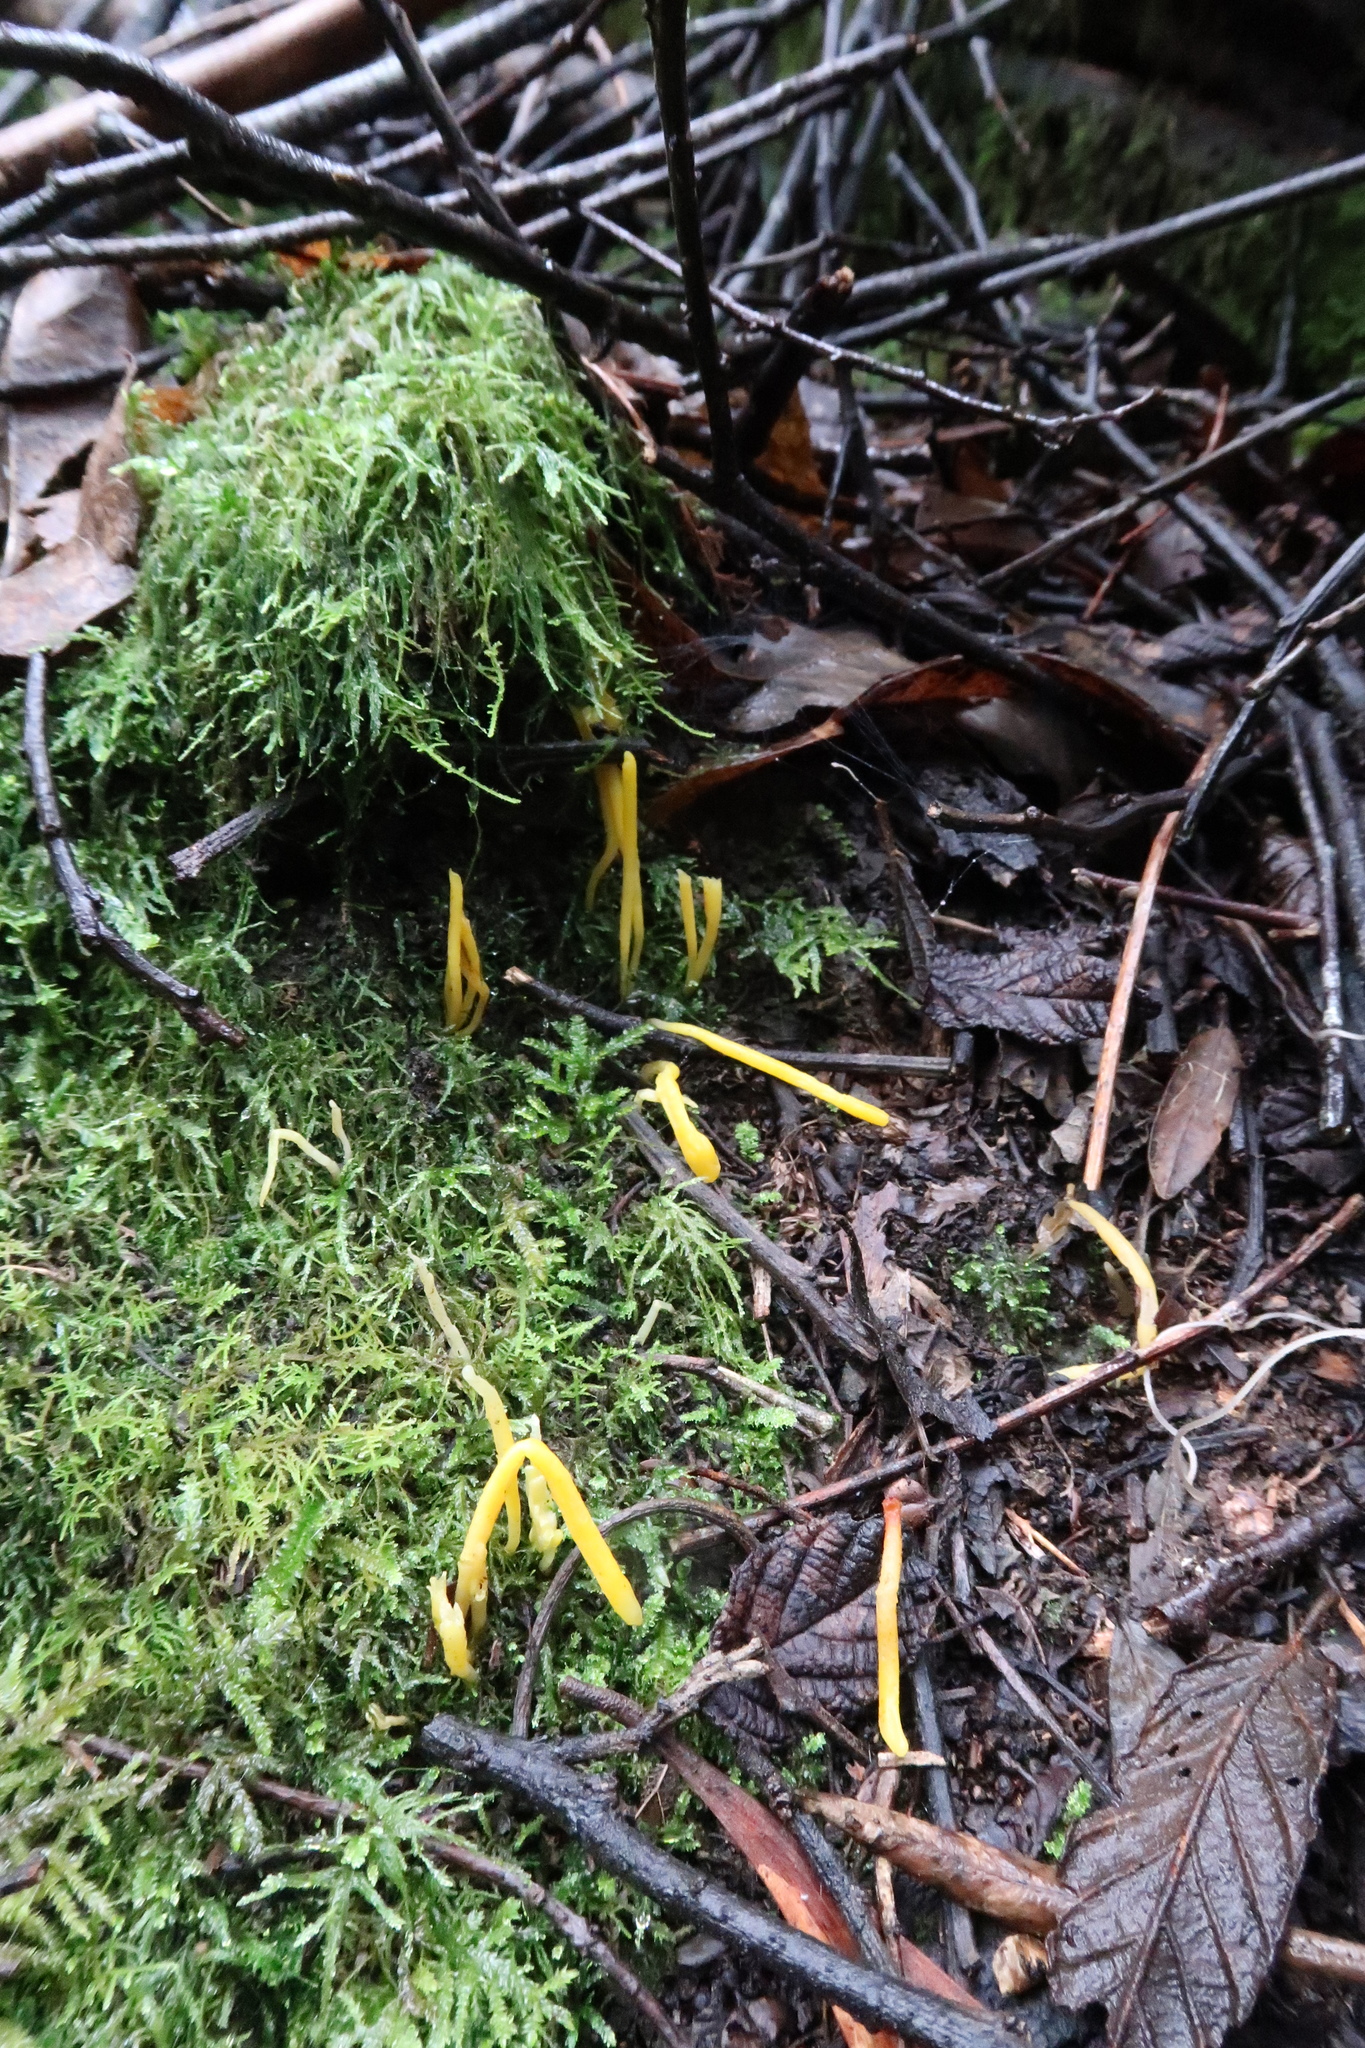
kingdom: Fungi
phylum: Basidiomycota
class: Agaricomycetes
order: Agaricales
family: Clavariaceae
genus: Clavulinopsis
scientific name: Clavulinopsis amoena
